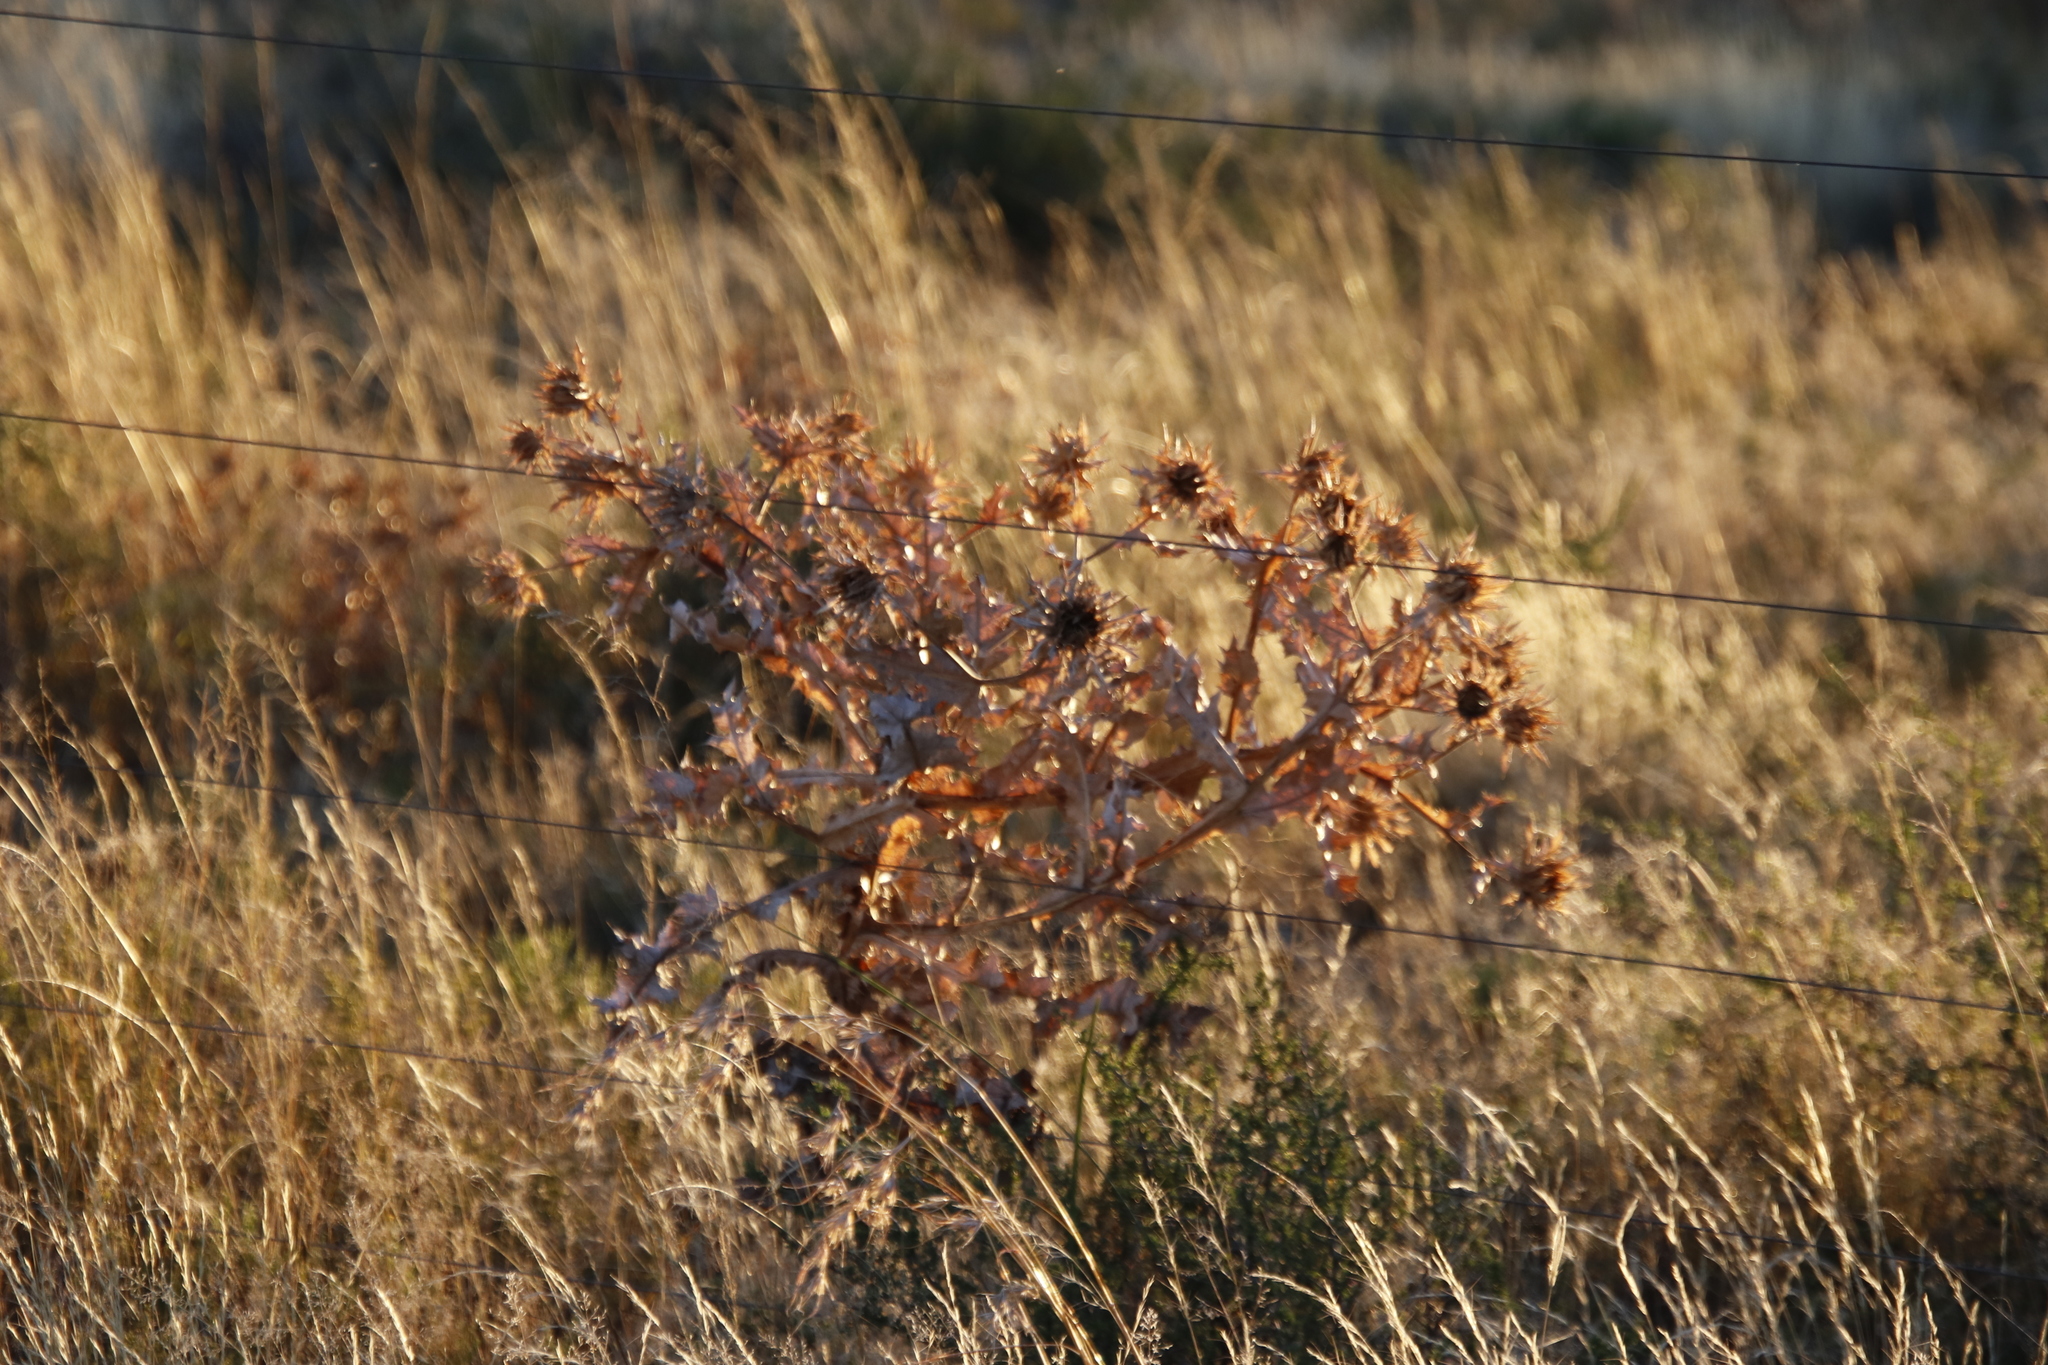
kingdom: Plantae
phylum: Tracheophyta
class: Magnoliopsida
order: Asterales
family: Asteraceae
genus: Berkheya
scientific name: Berkheya onopordifolia
